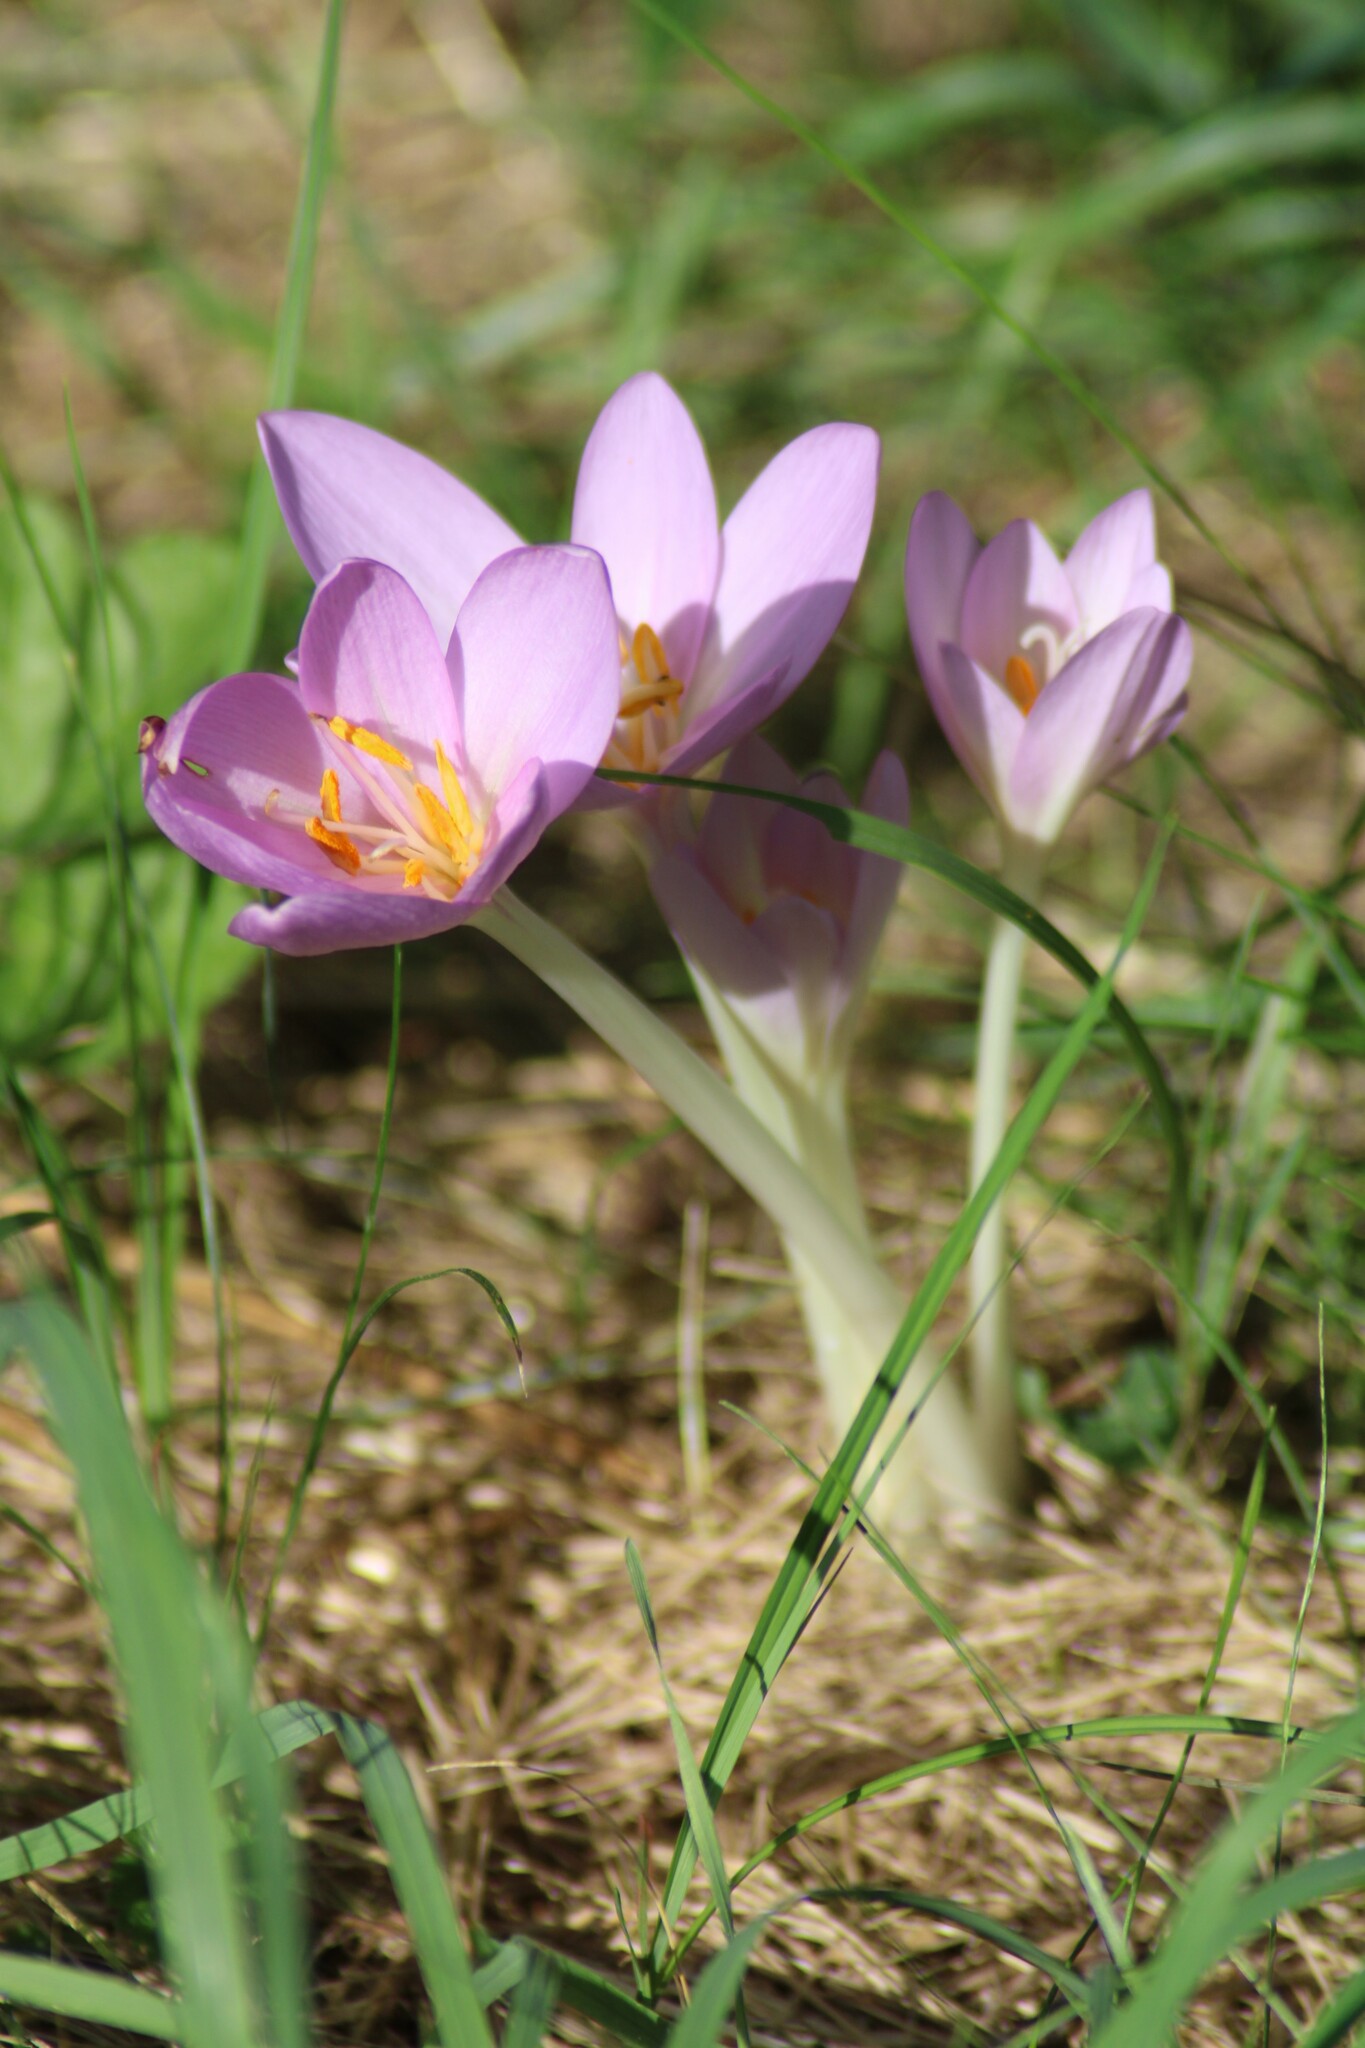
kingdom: Plantae
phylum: Tracheophyta
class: Liliopsida
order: Liliales
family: Colchicaceae
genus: Colchicum
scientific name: Colchicum autumnale
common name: Autumn crocus
